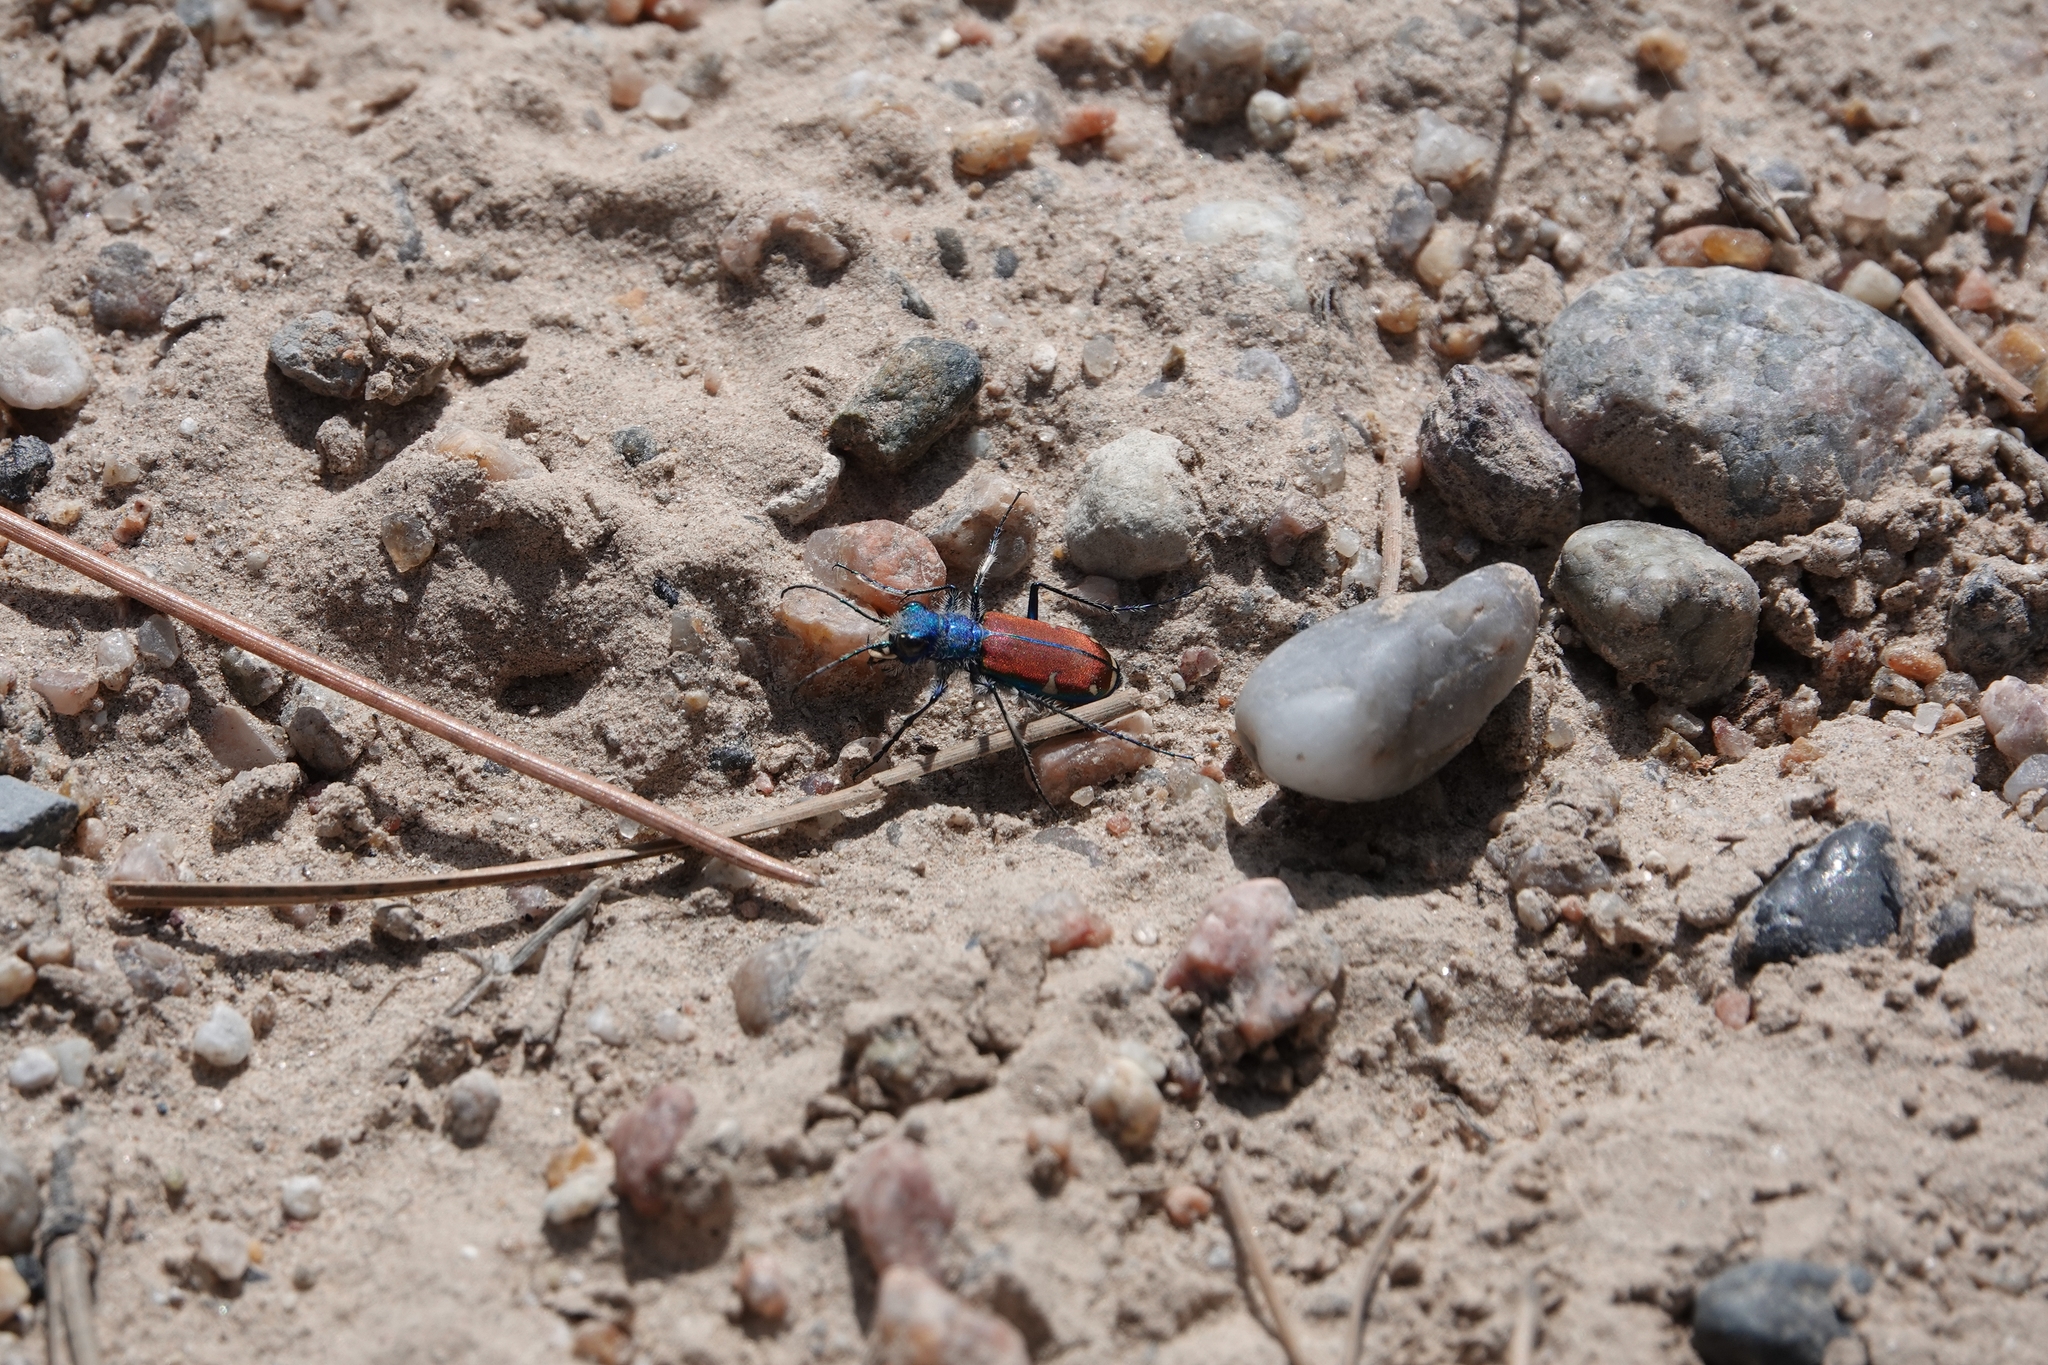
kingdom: Animalia
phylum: Arthropoda
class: Insecta
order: Coleoptera
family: Carabidae
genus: Cicindela
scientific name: Cicindela splendida
